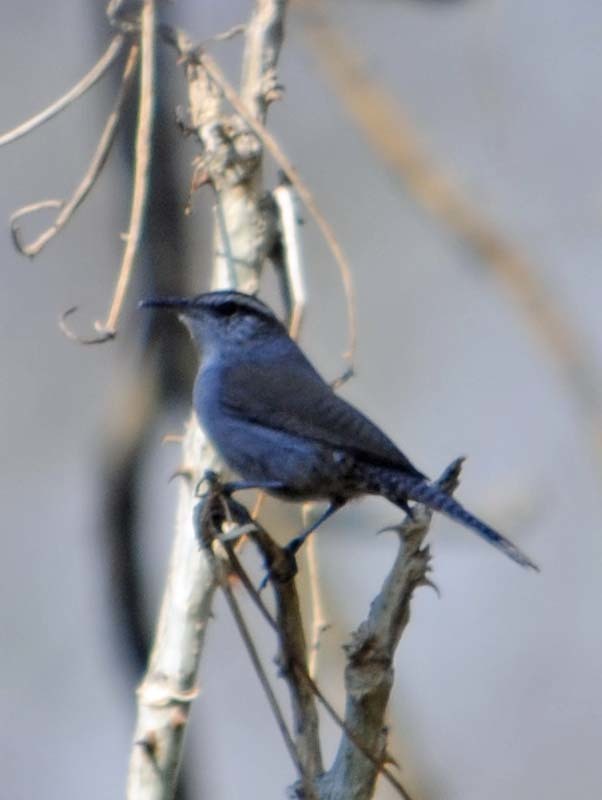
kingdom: Animalia
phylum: Chordata
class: Aves
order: Passeriformes
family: Troglodytidae
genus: Thryomanes
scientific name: Thryomanes bewickii
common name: Bewick's wren
